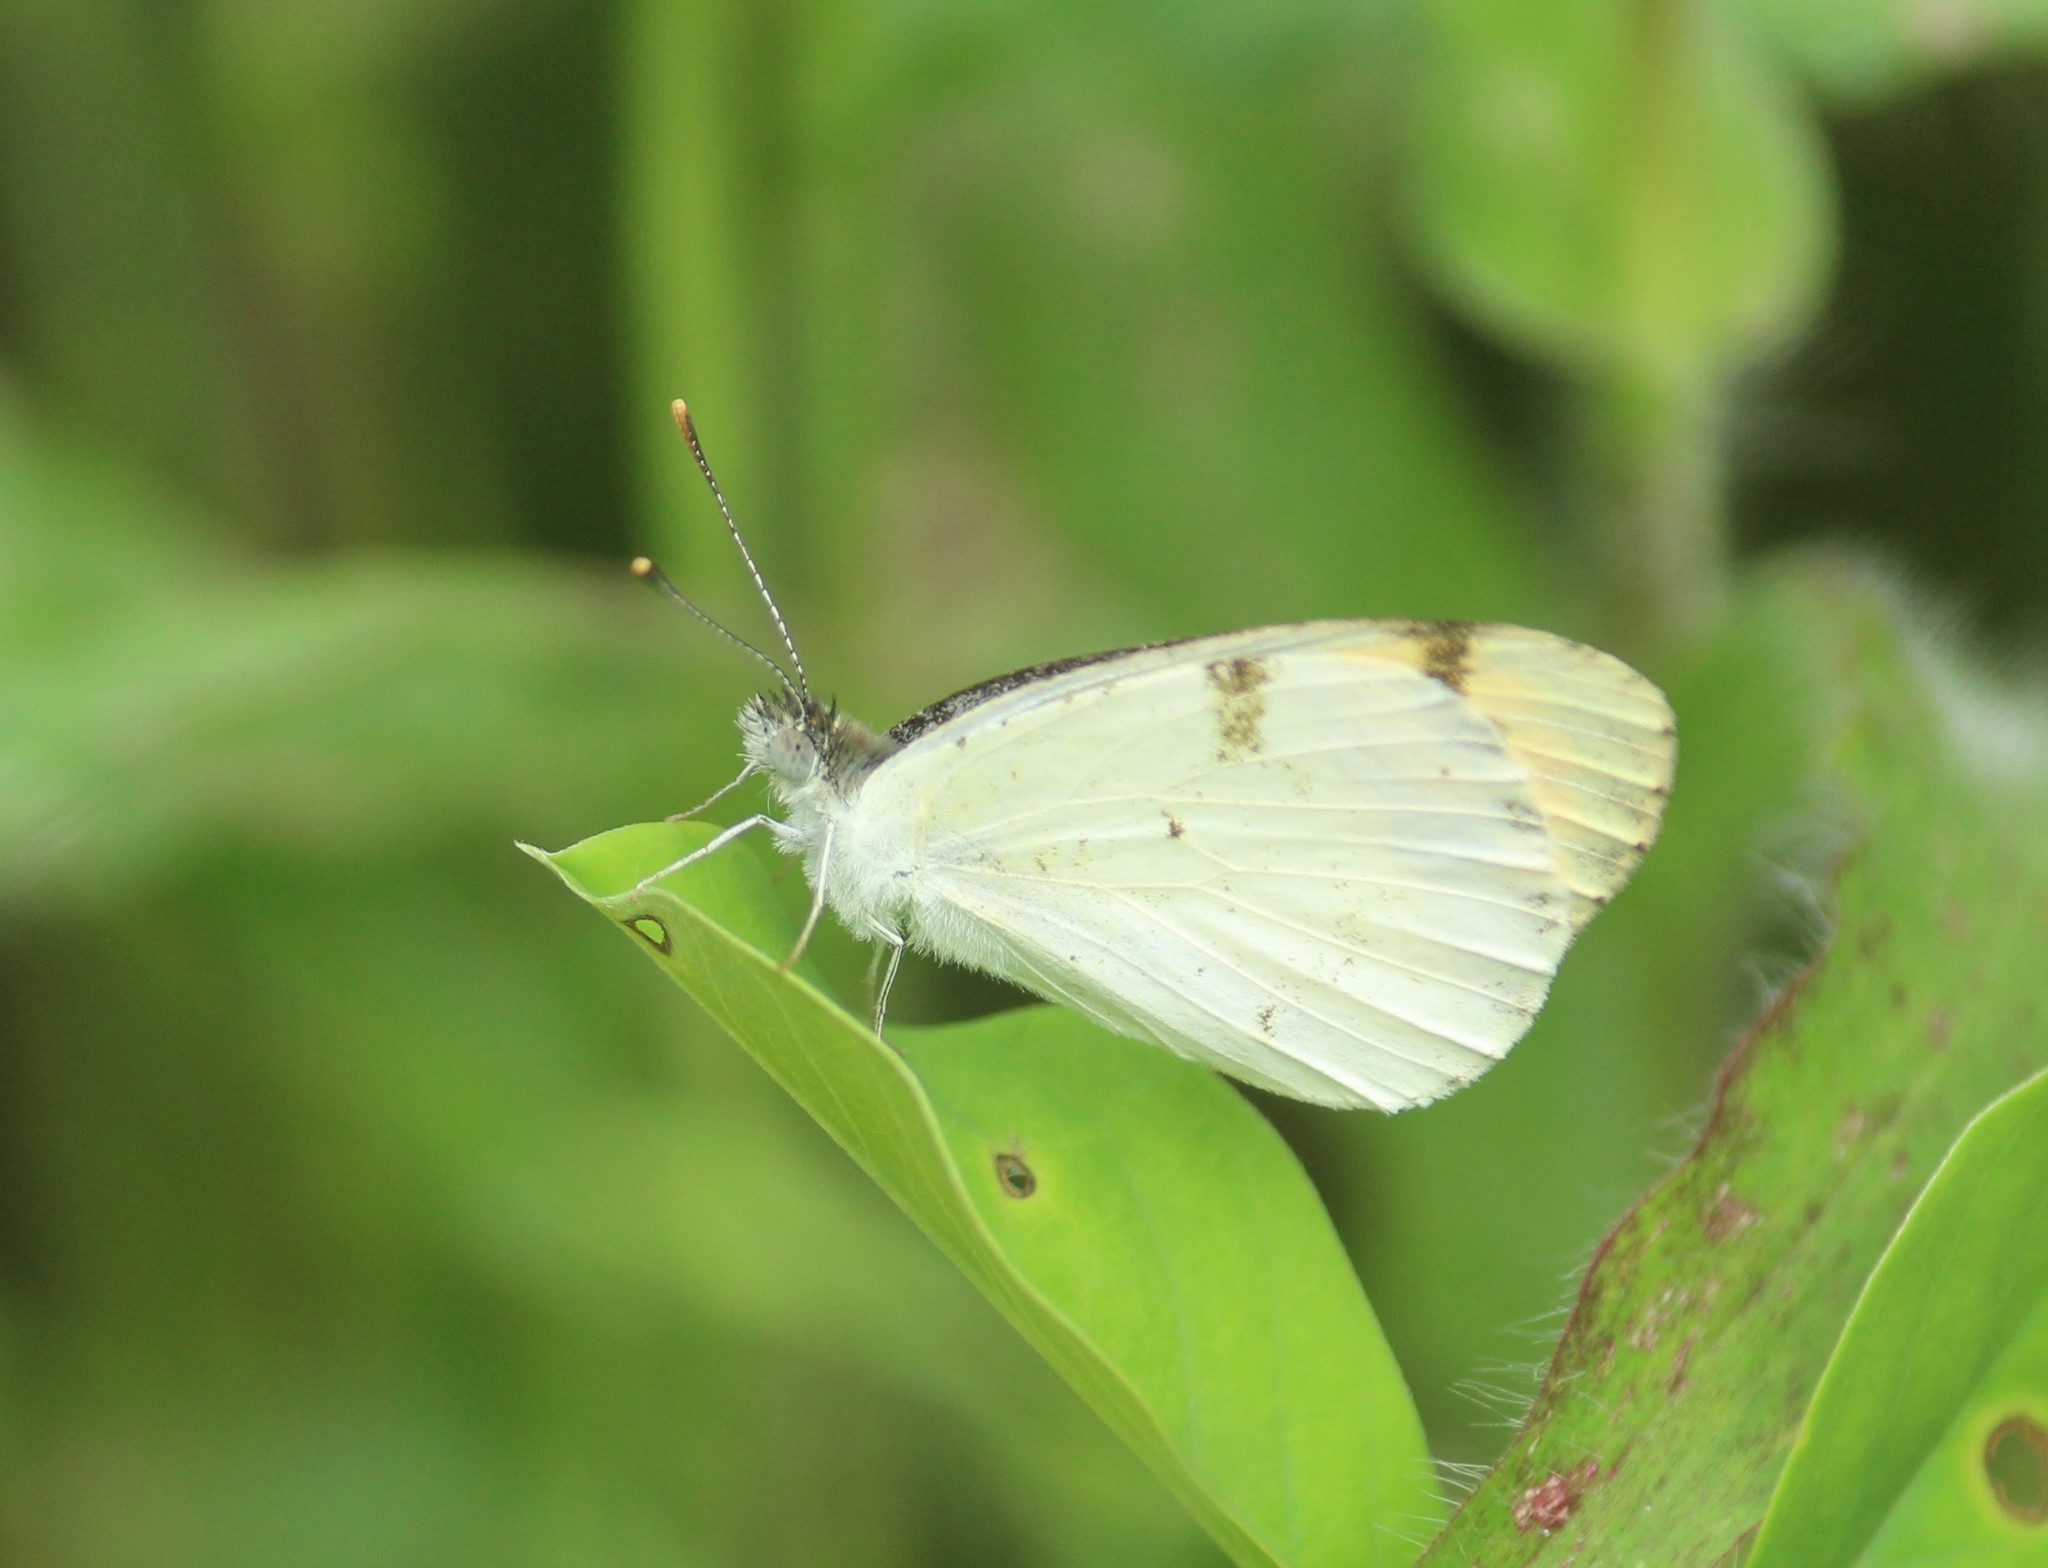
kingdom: Animalia
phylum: Arthropoda
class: Insecta
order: Lepidoptera
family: Pieridae
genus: Colotis
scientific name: Colotis aurora
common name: Plain orange-tip
